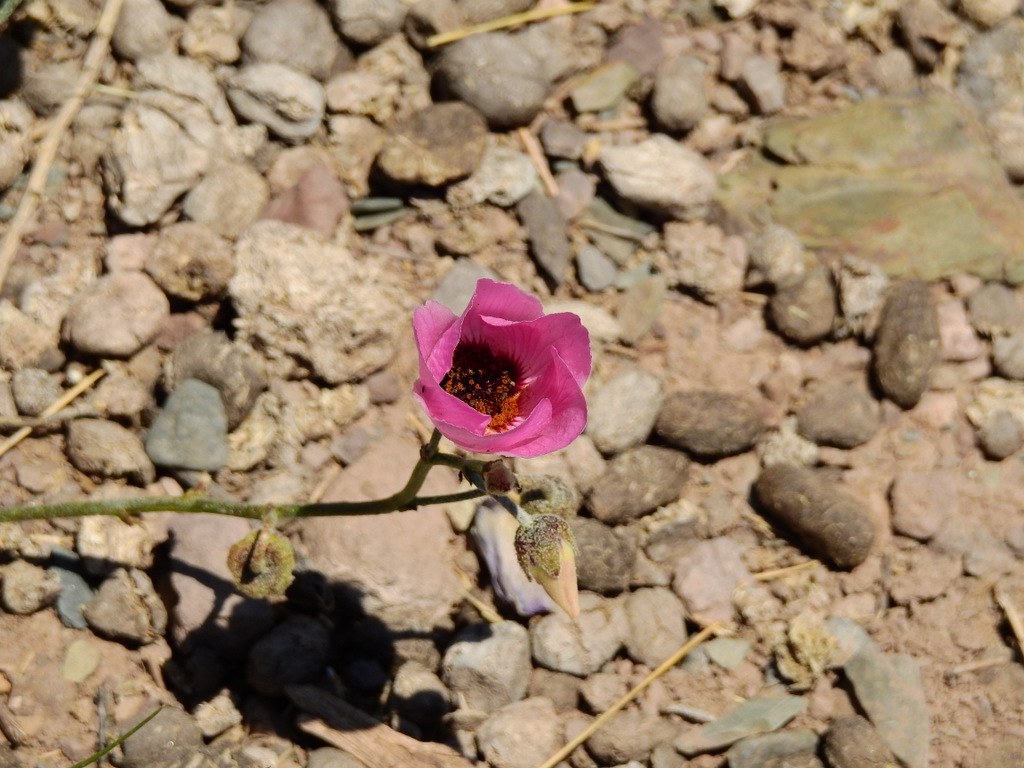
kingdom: Plantae
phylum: Tracheophyta
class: Magnoliopsida
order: Malvales
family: Malvaceae
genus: Lecanophora
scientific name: Lecanophora heterophylla
